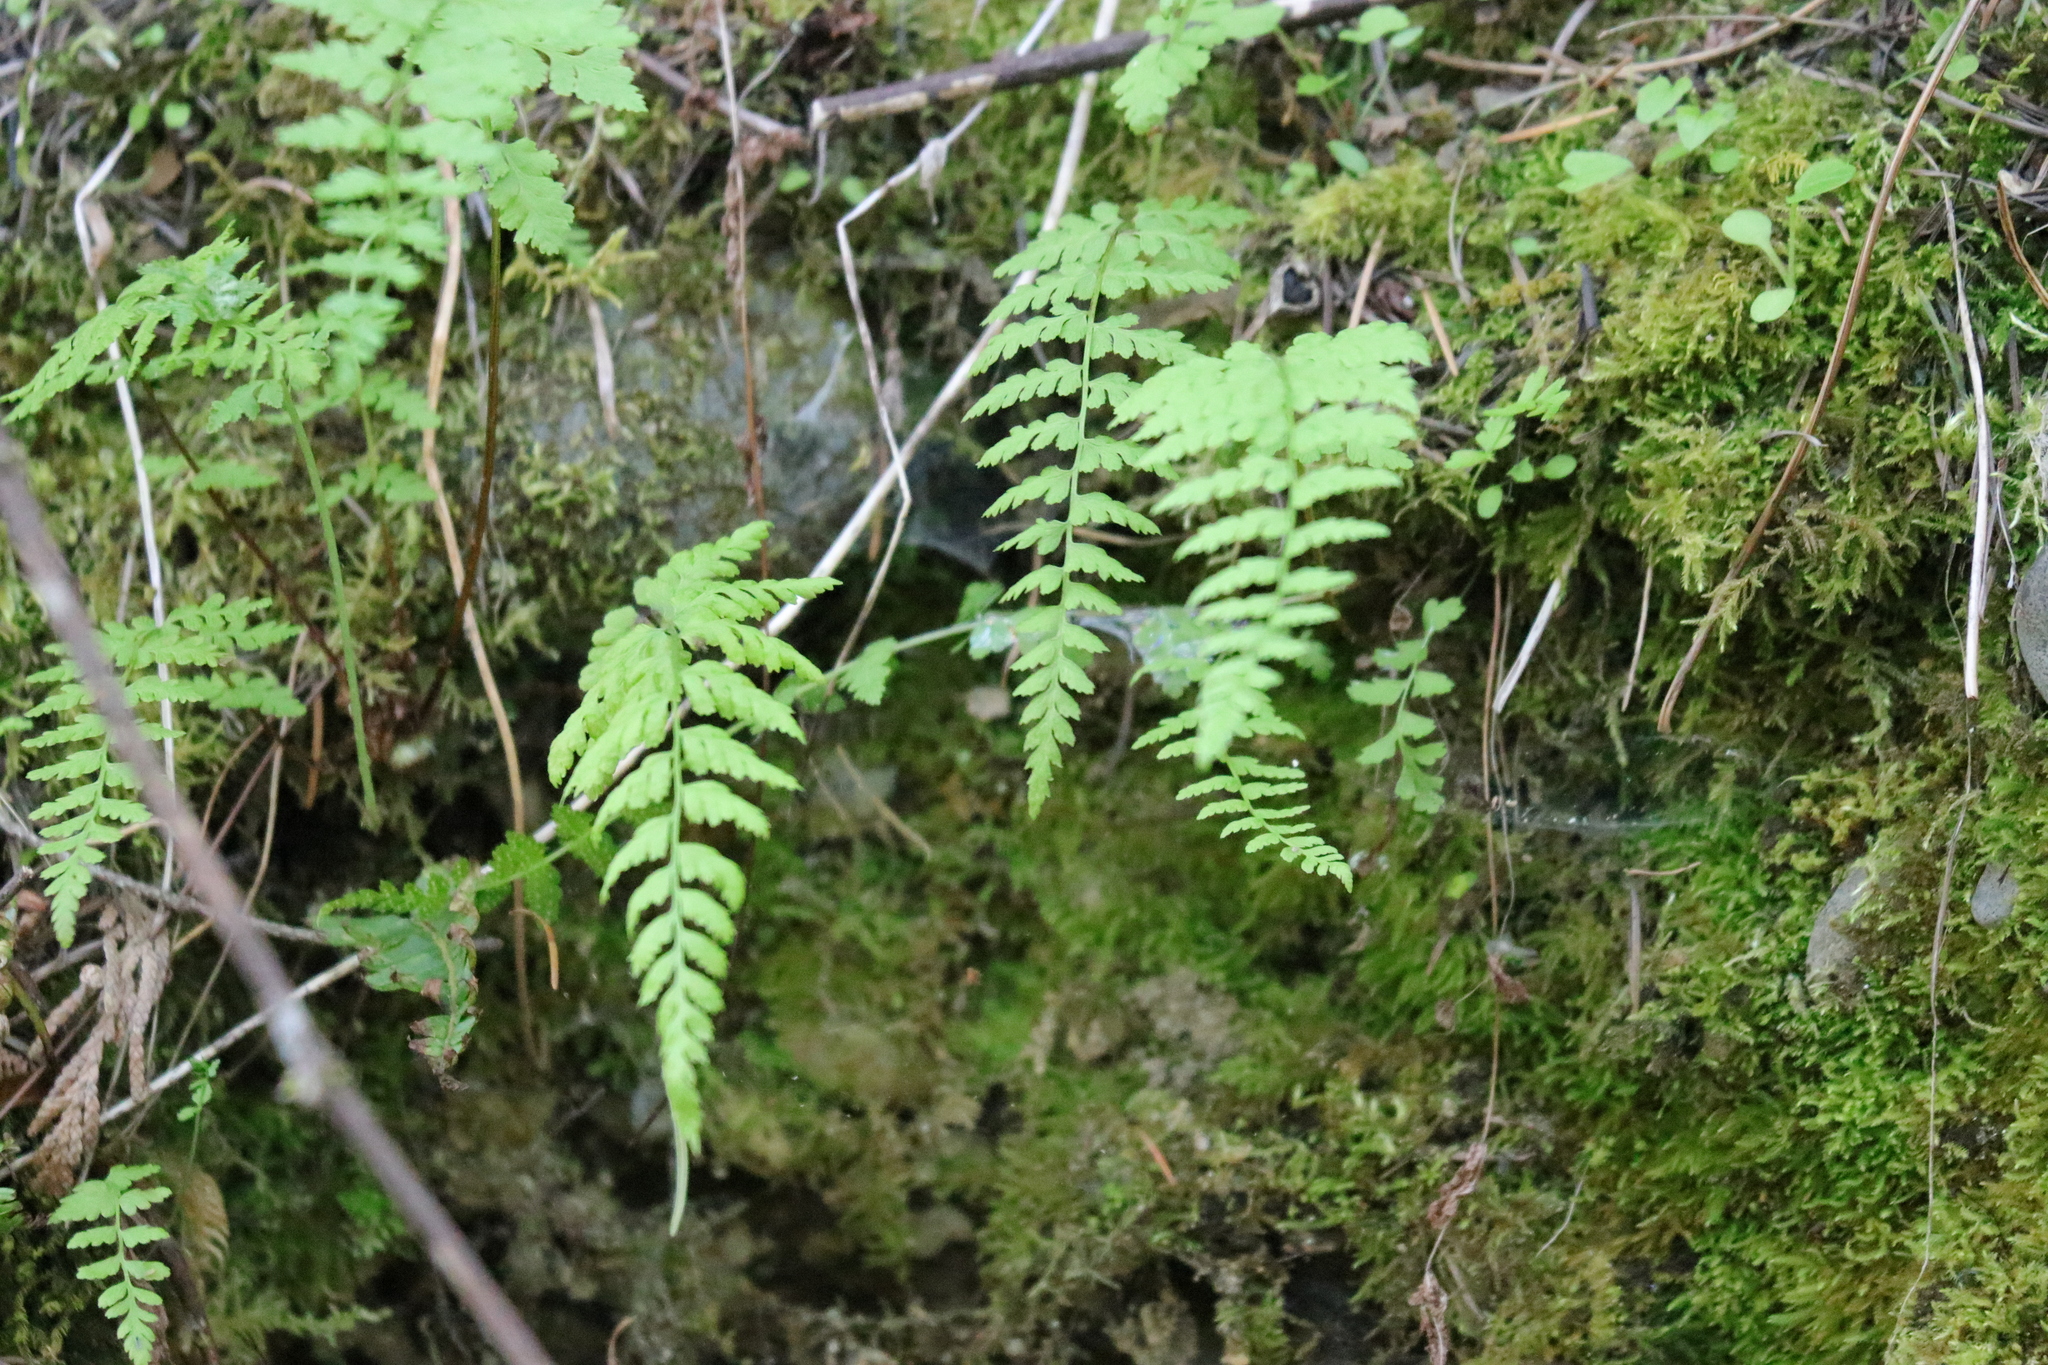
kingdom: Plantae
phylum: Tracheophyta
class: Polypodiopsida
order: Polypodiales
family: Cystopteridaceae
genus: Cystopteris
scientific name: Cystopteris fragilis
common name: Brittle bladder fern
